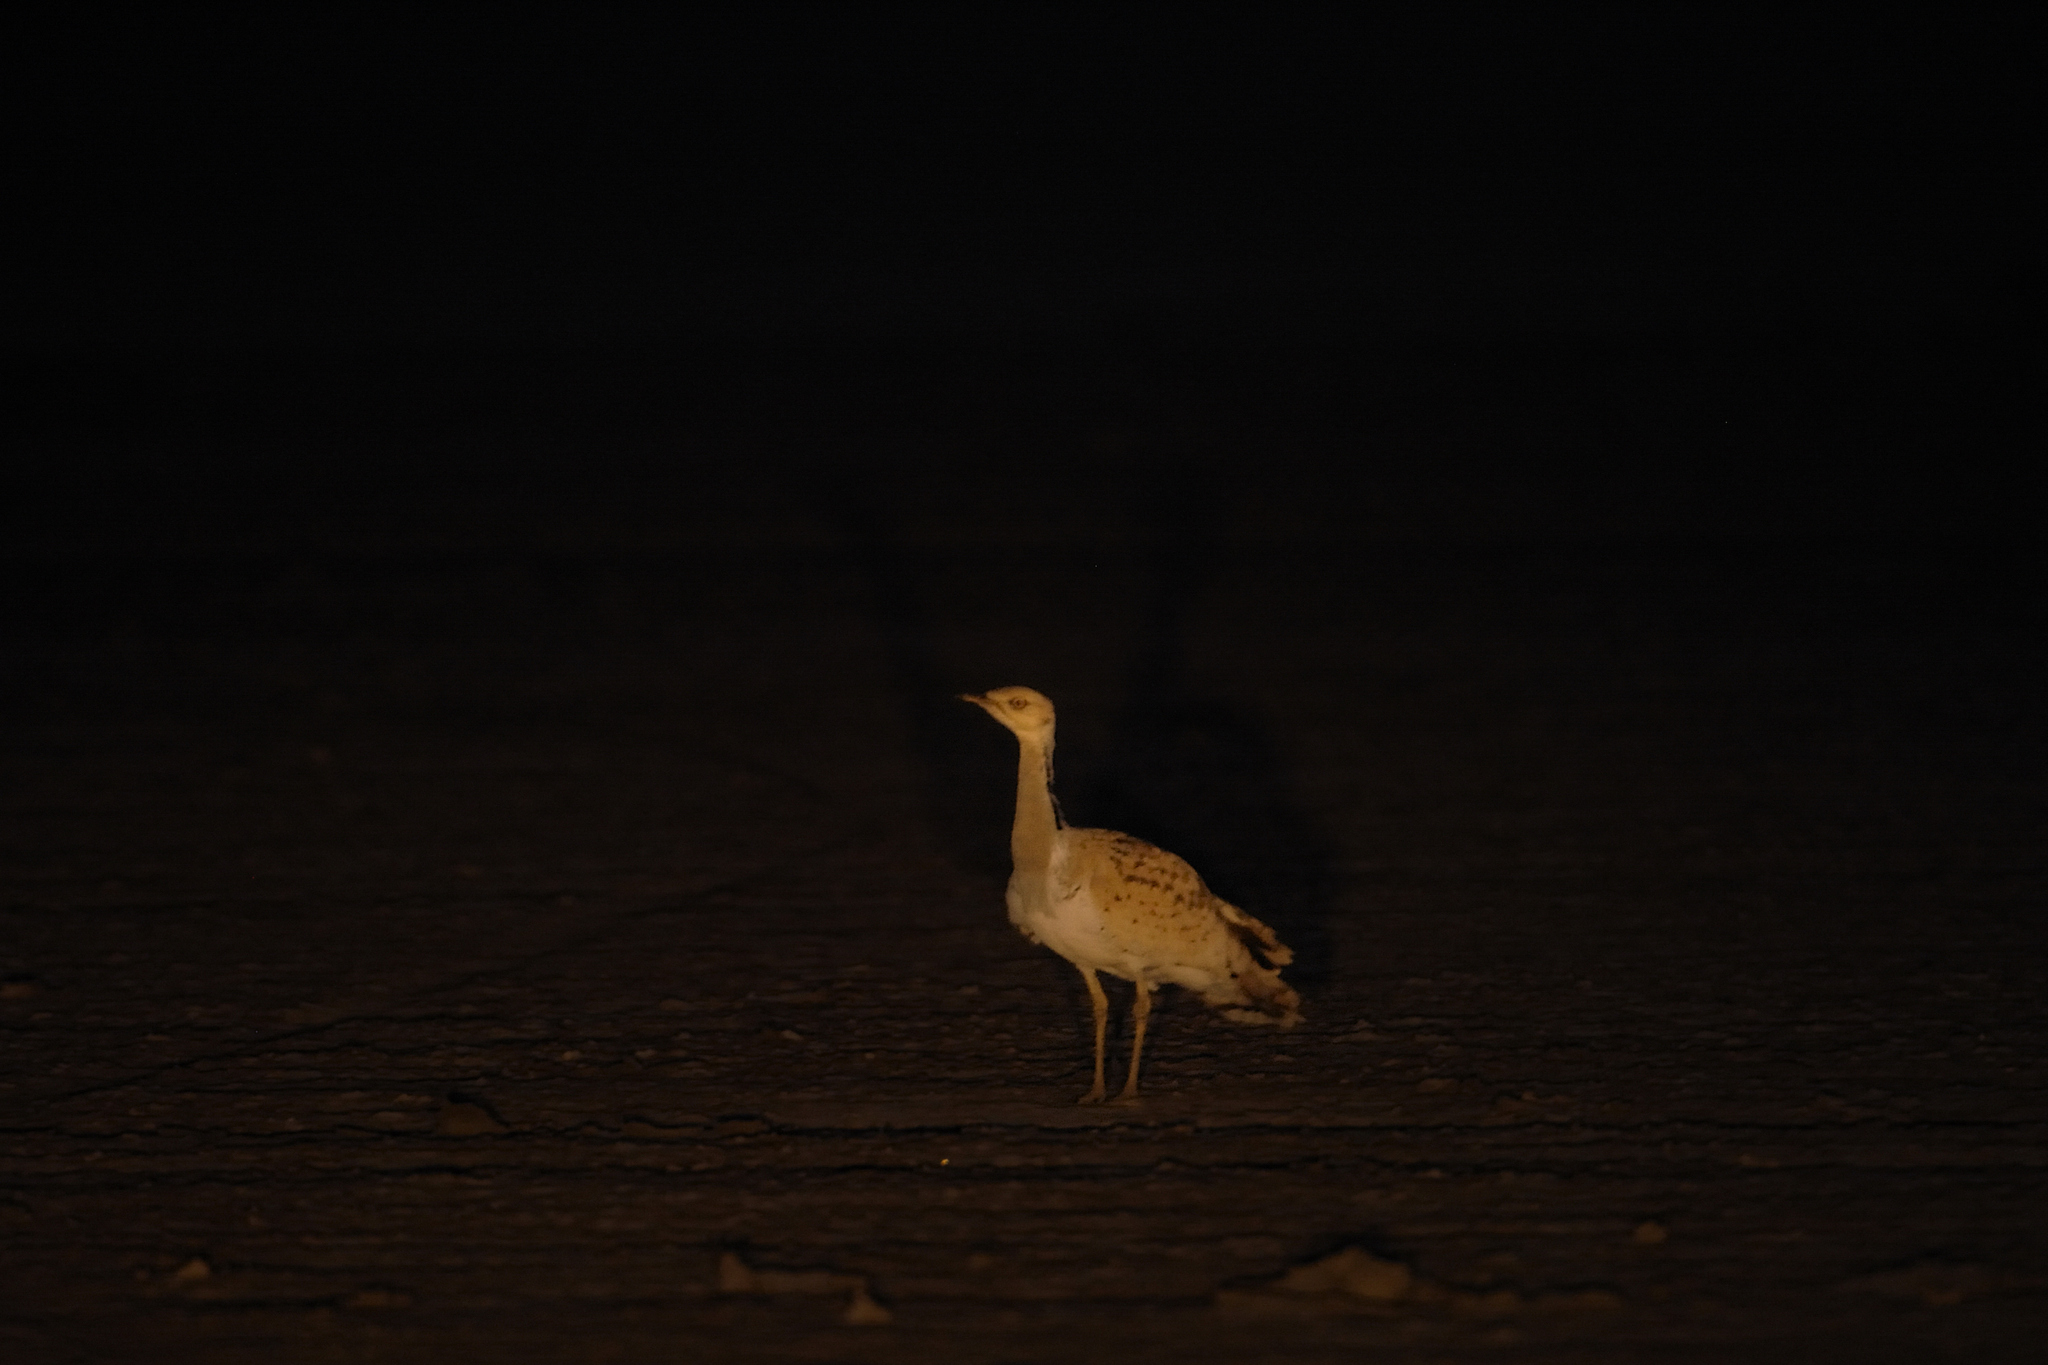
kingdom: Animalia
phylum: Chordata
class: Aves
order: Otidiformes
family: Otididae
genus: Chlamydotis
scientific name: Chlamydotis macqueenii
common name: Macqueen's bustard
